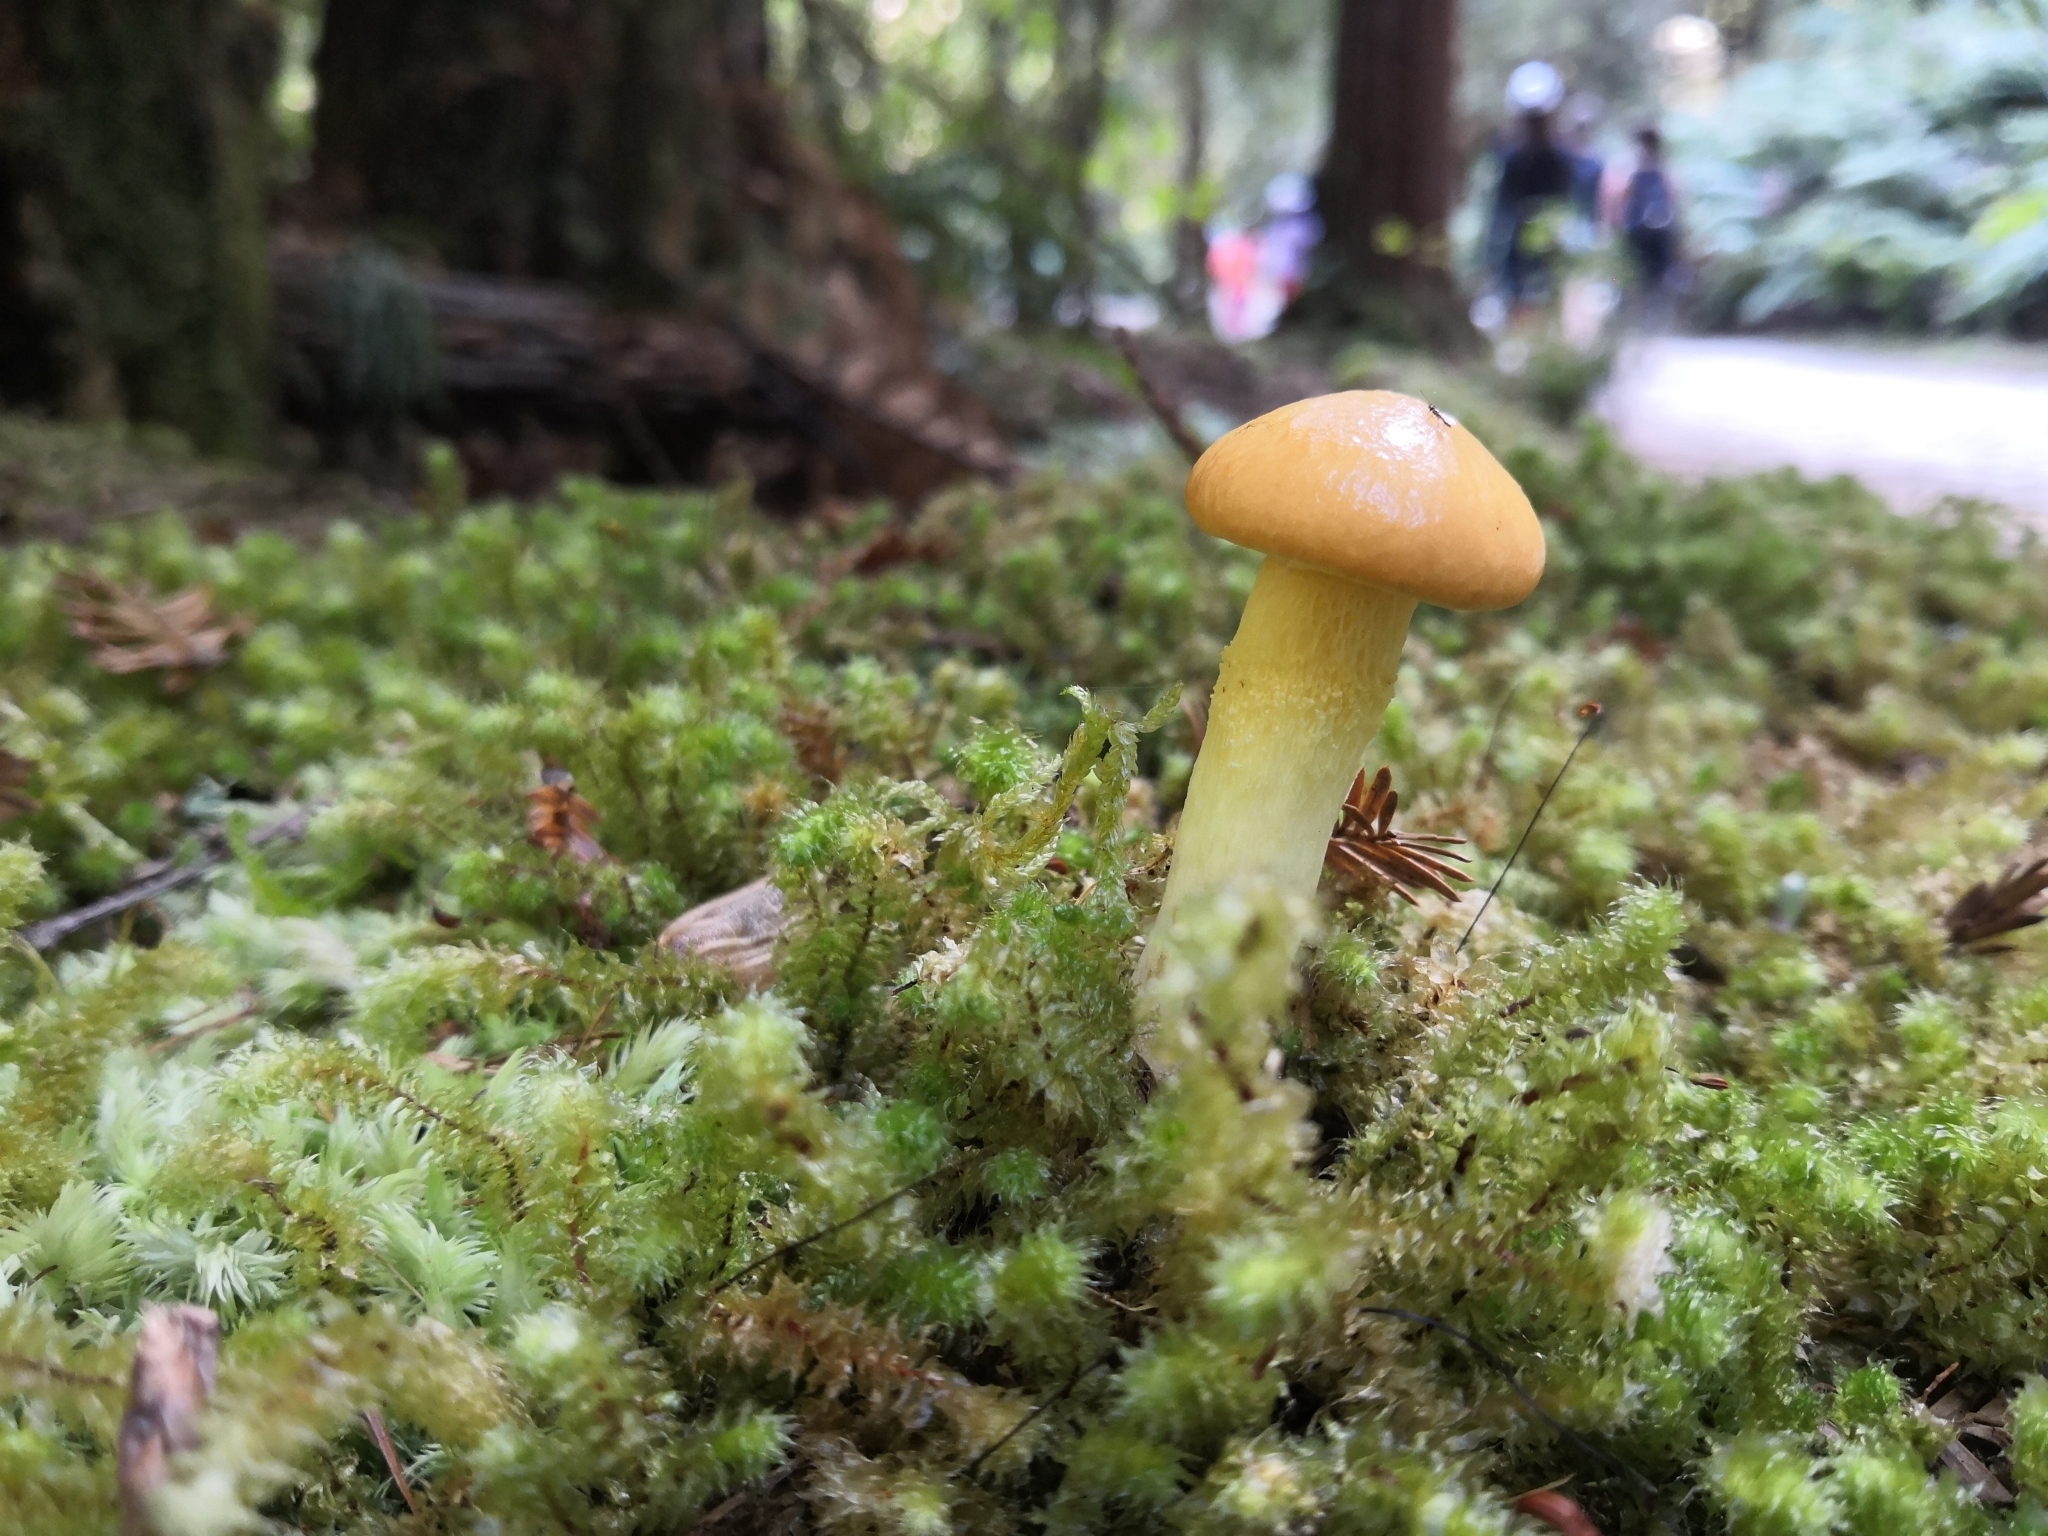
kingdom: Fungi
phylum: Basidiomycota
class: Agaricomycetes
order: Boletales
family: Suillaceae
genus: Suillus
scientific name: Suillus grevillei
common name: Larch bolete
